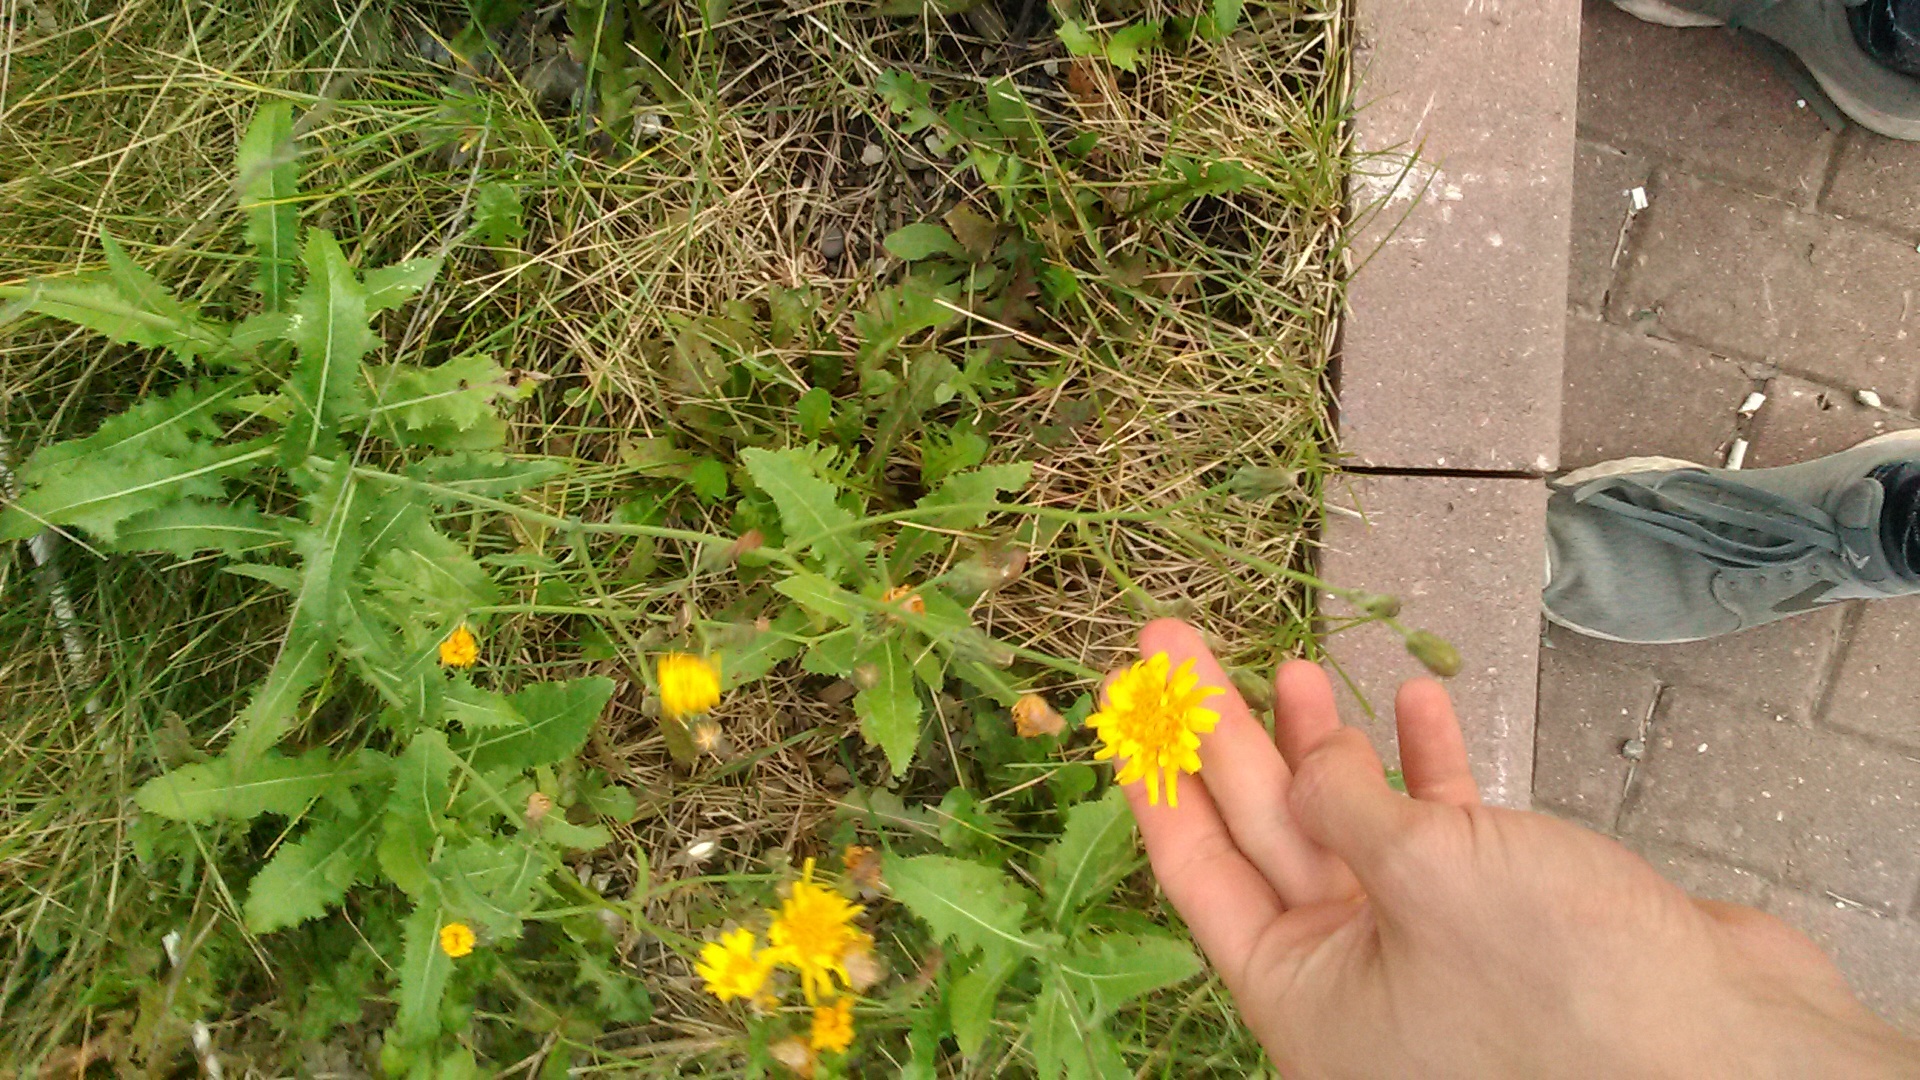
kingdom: Plantae
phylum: Tracheophyta
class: Magnoliopsida
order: Asterales
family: Asteraceae
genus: Sonchus
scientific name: Sonchus arvensis
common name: Perennial sow-thistle
